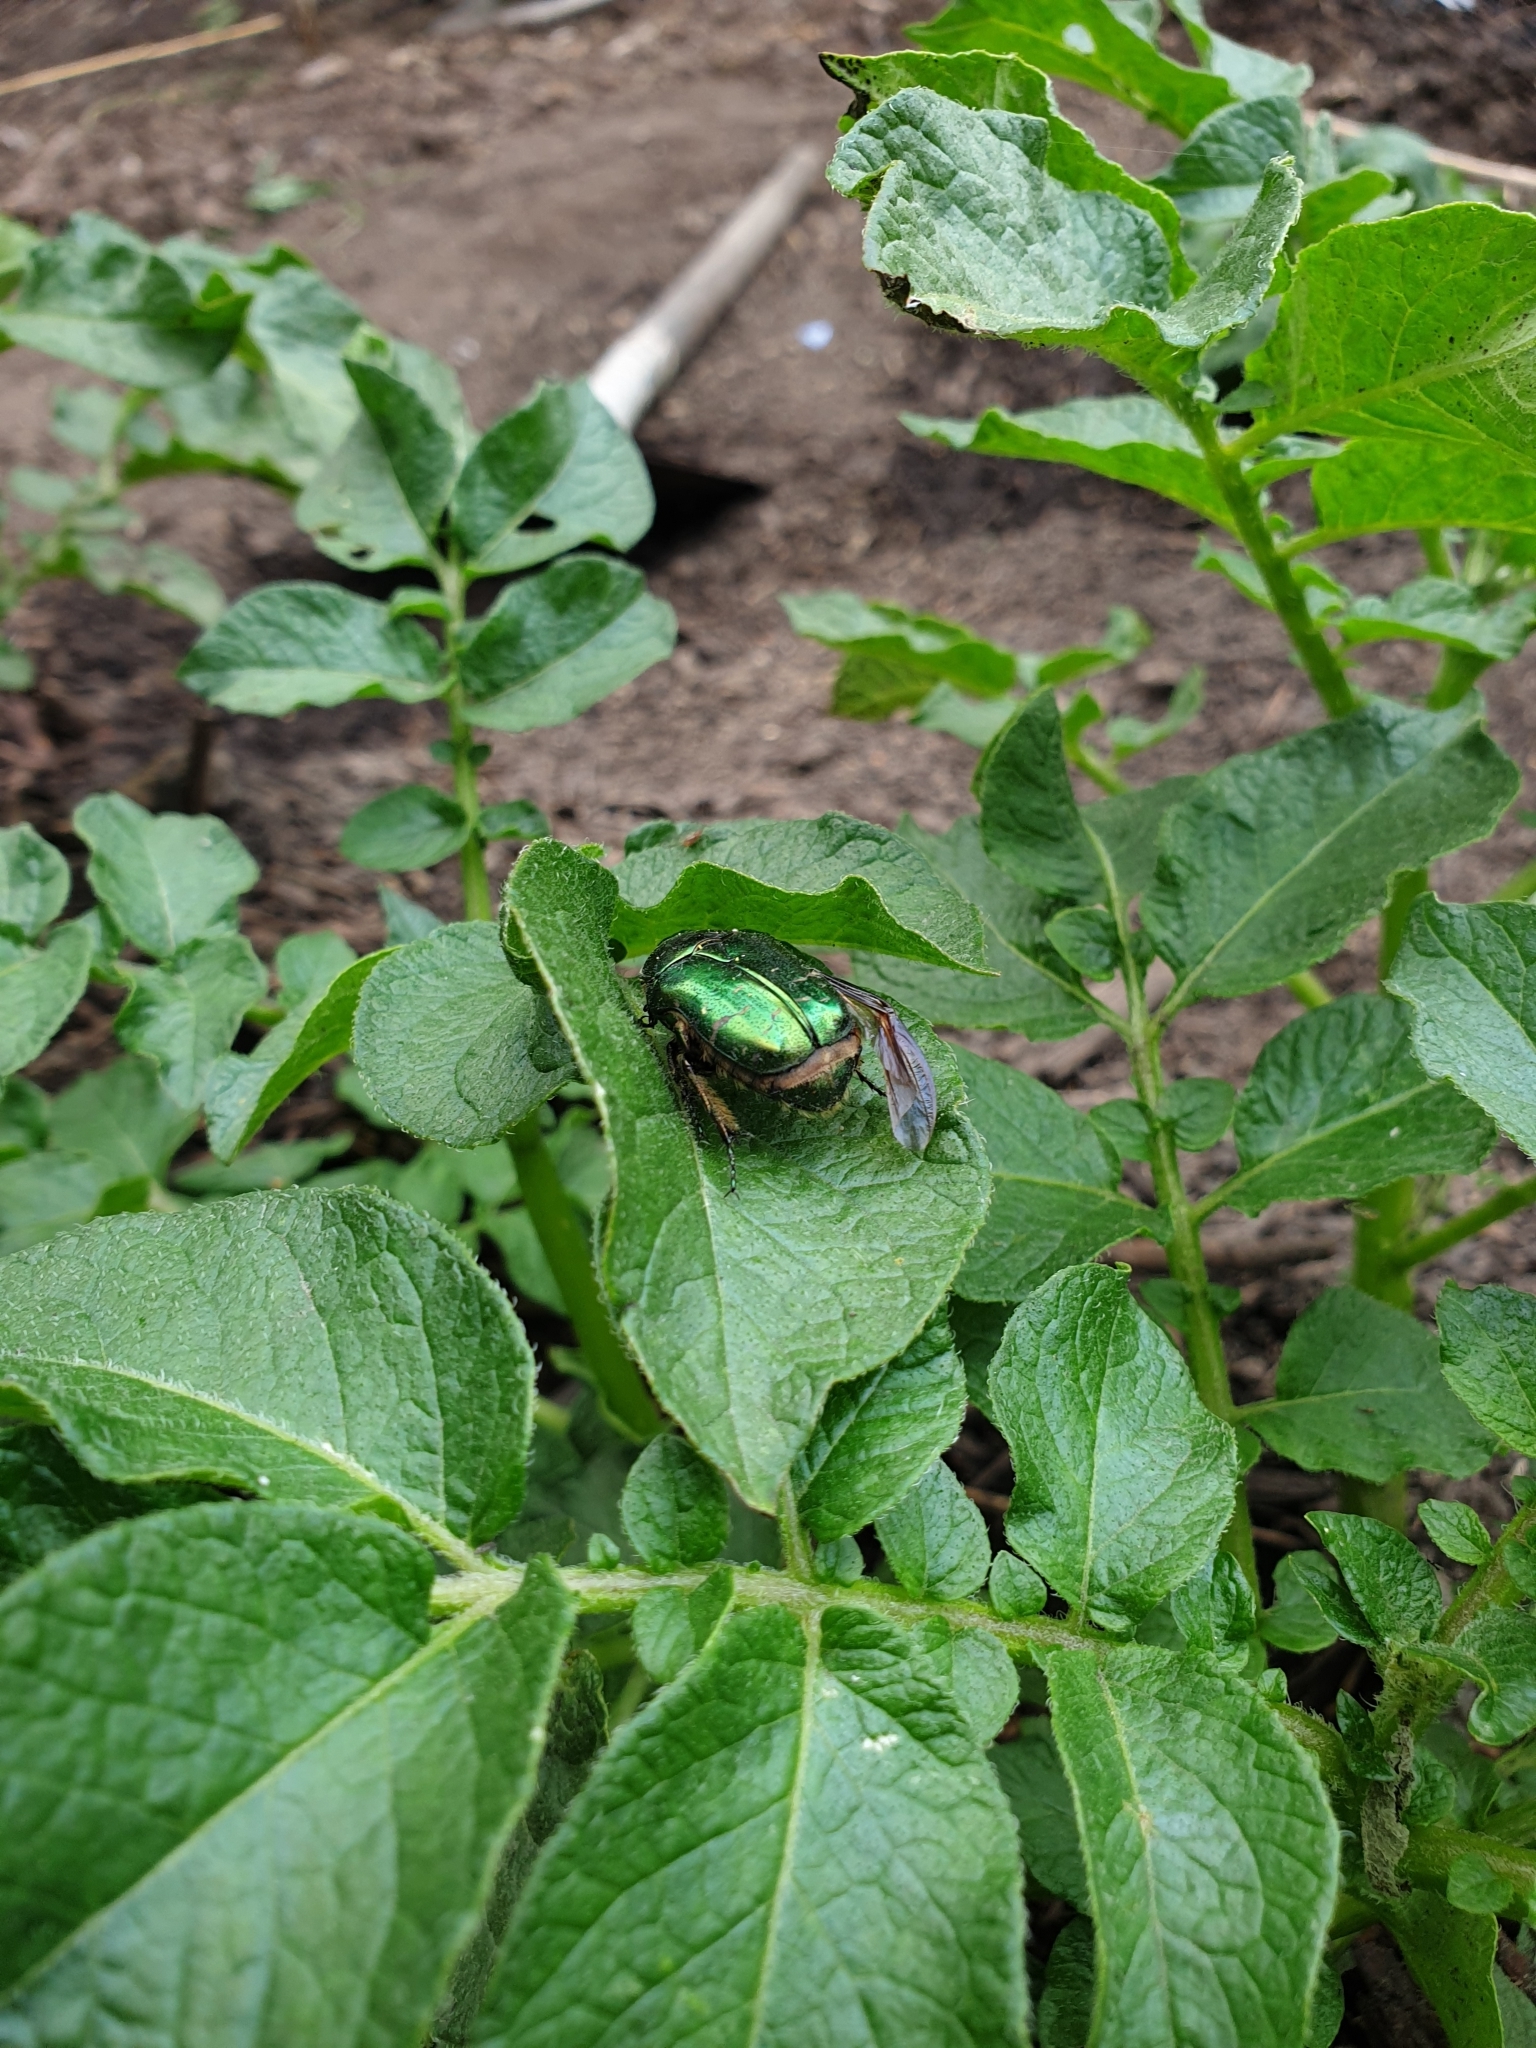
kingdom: Animalia
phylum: Arthropoda
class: Insecta
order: Coleoptera
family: Scarabaeidae
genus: Cetonia
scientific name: Cetonia aurata
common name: Rose chafer
